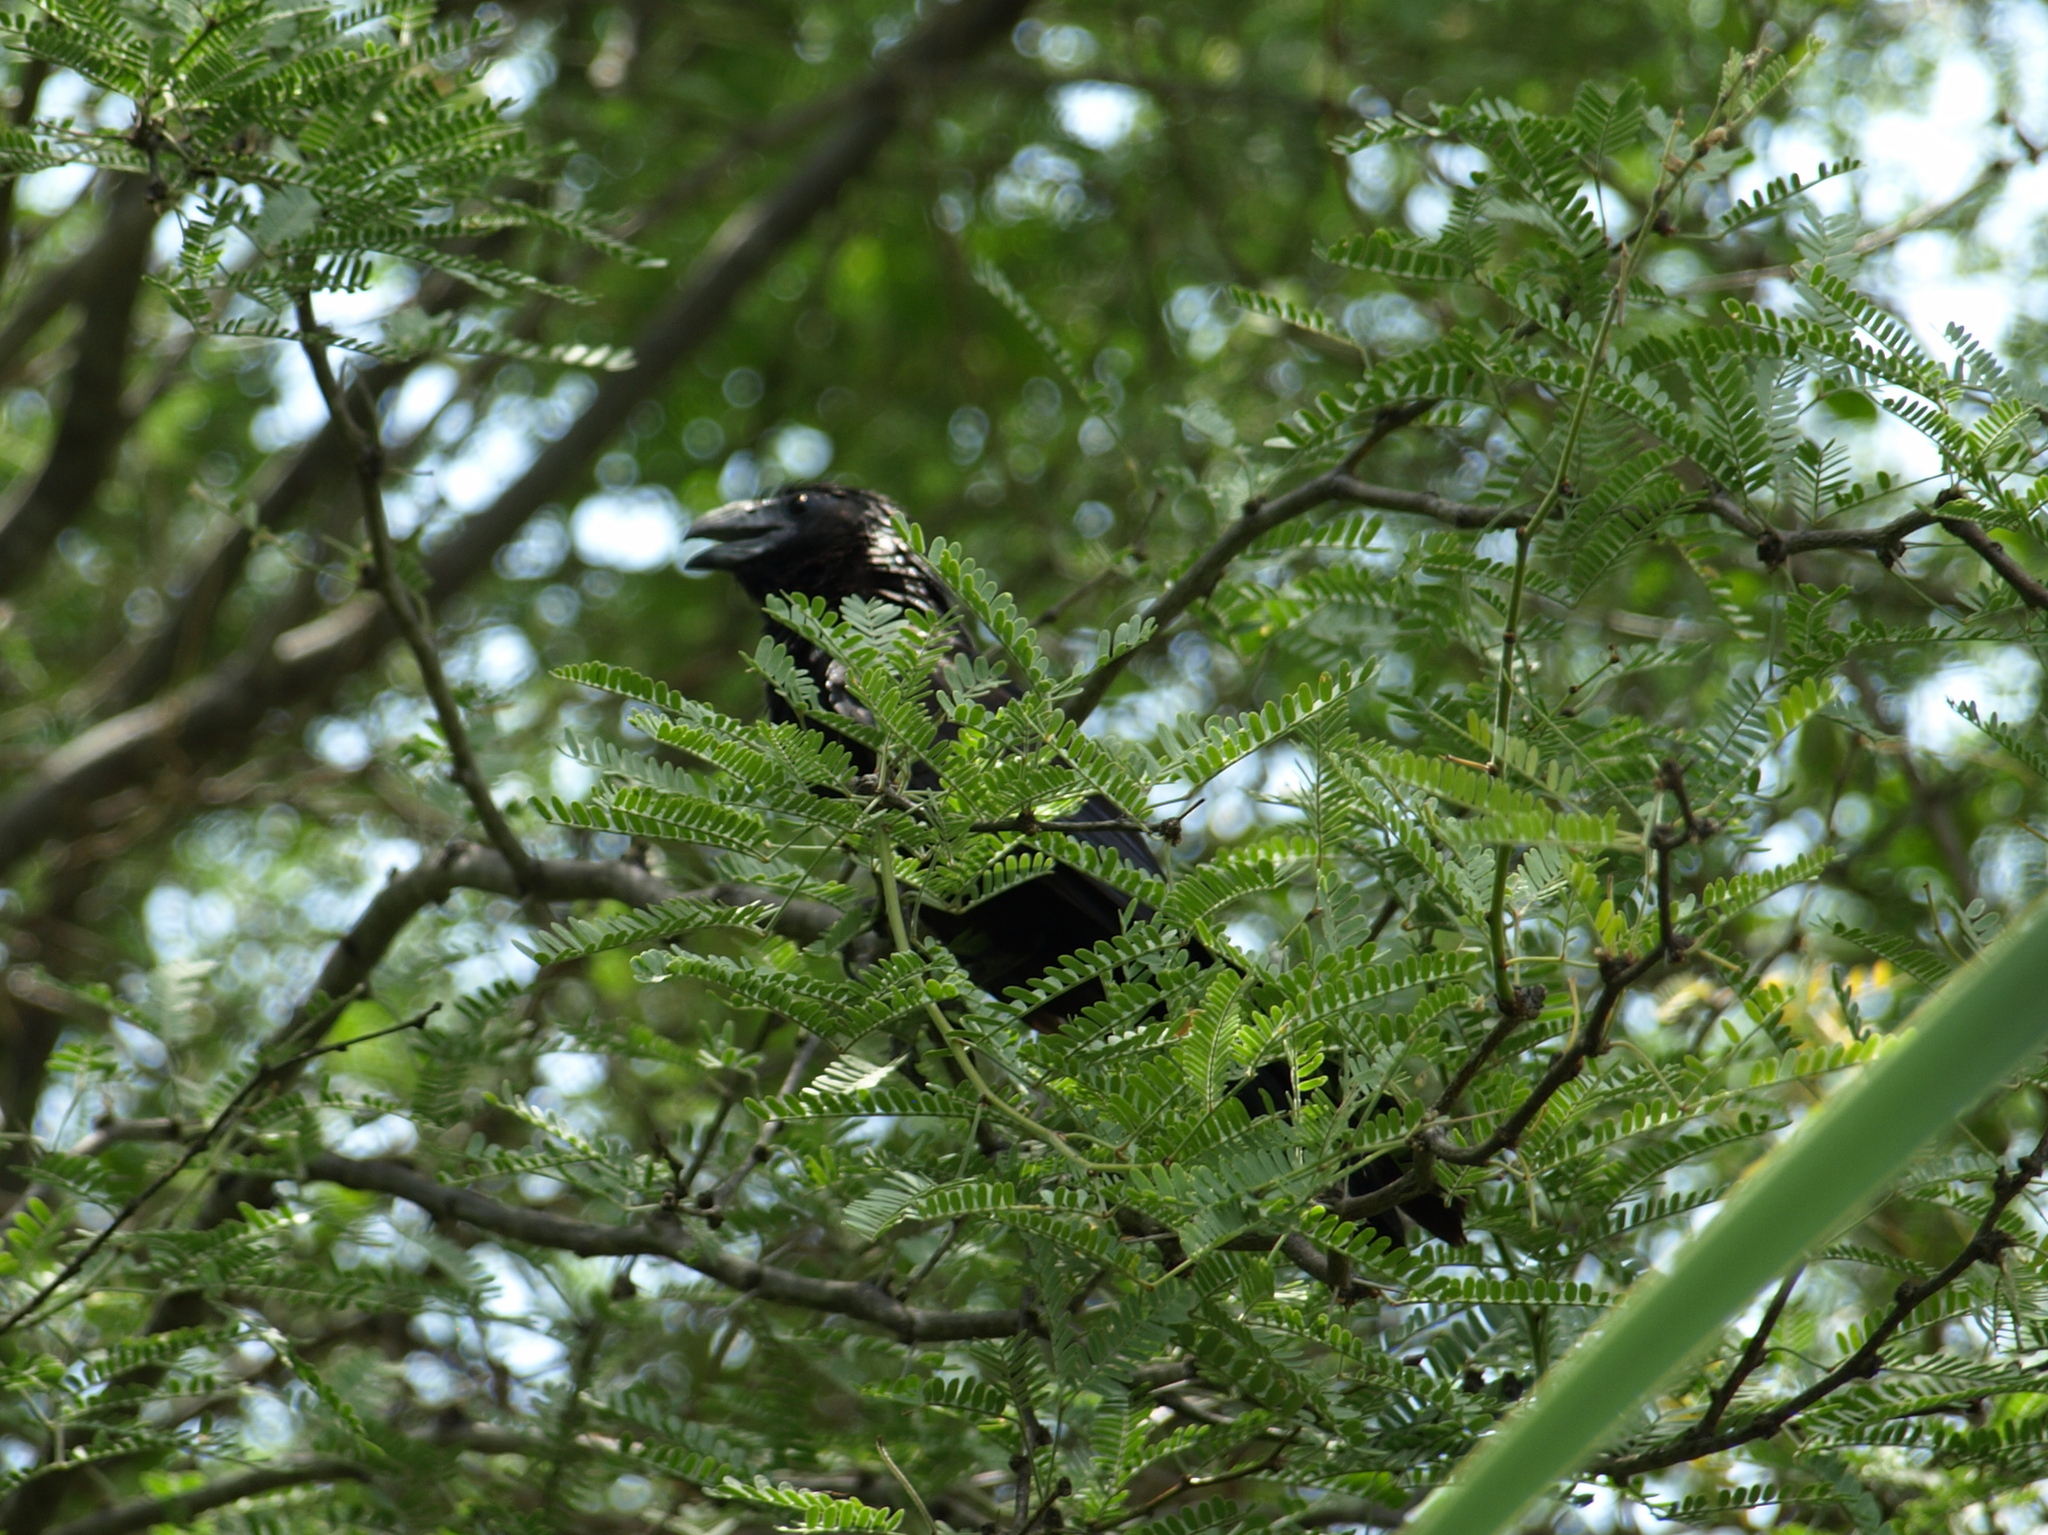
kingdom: Animalia
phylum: Chordata
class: Aves
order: Cuculiformes
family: Cuculidae
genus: Crotophaga
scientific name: Crotophaga sulcirostris
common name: Groove-billed ani
